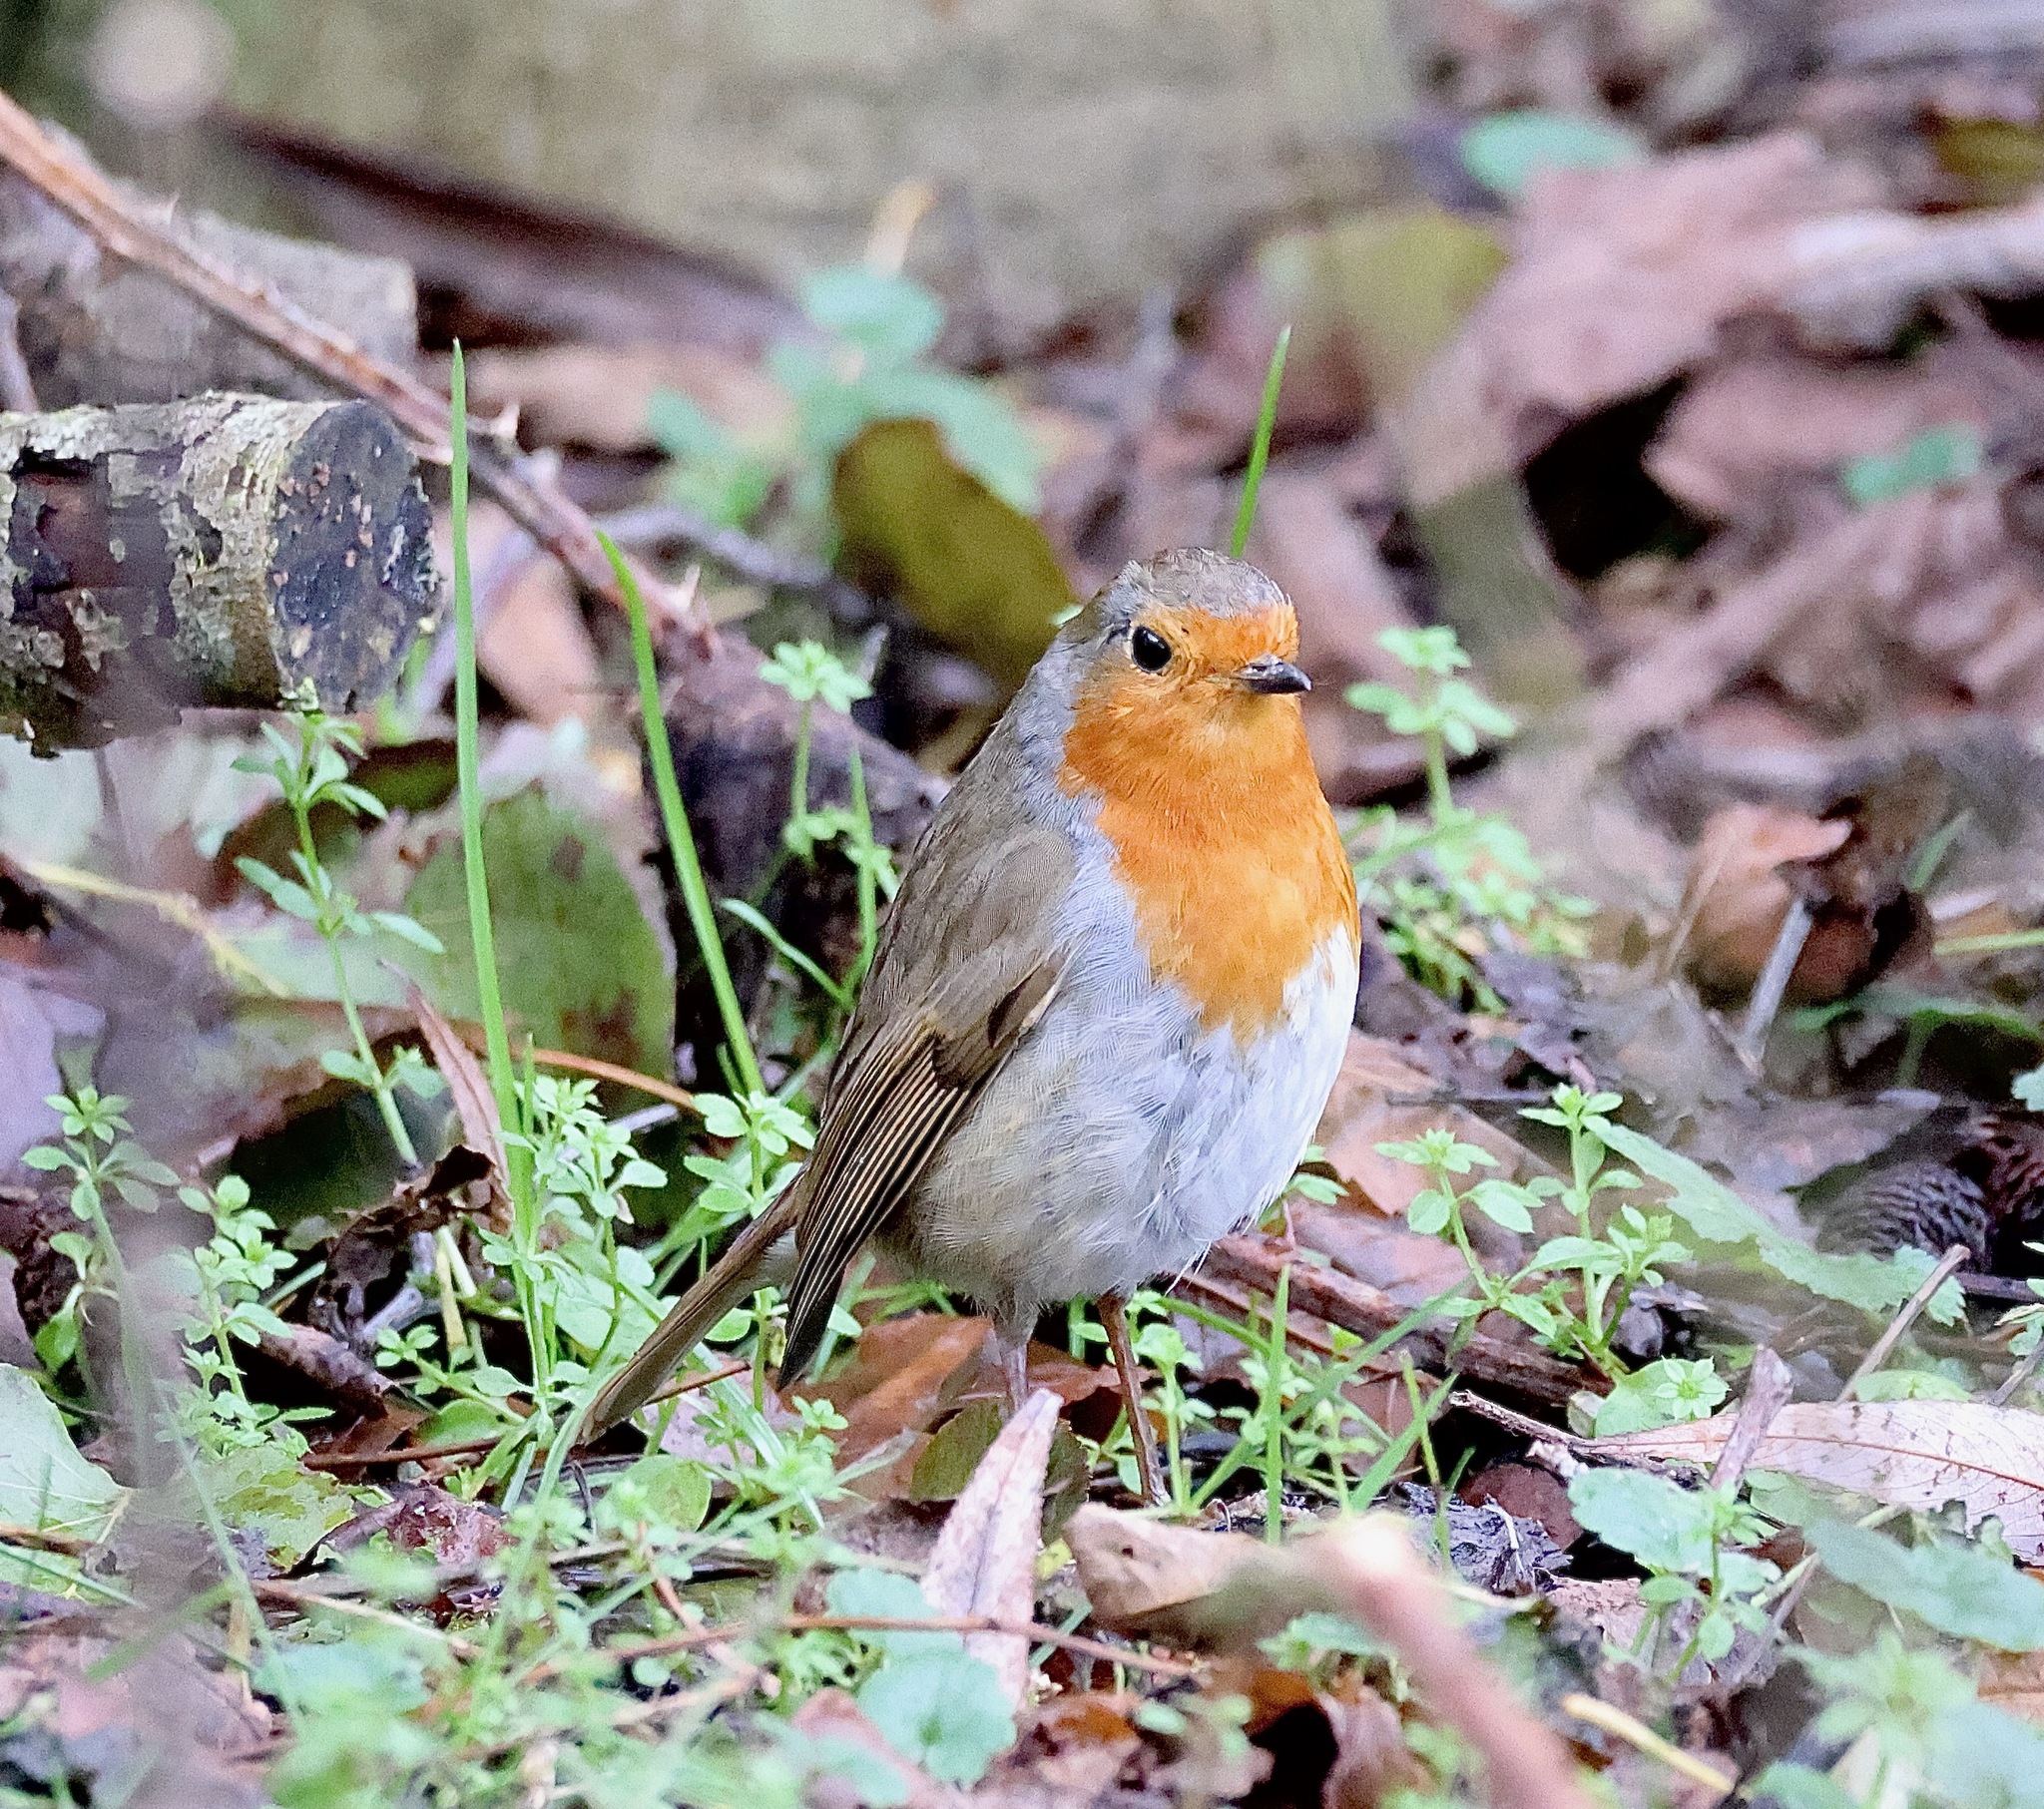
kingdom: Animalia
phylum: Chordata
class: Aves
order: Passeriformes
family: Muscicapidae
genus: Erithacus
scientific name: Erithacus rubecula
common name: European robin
